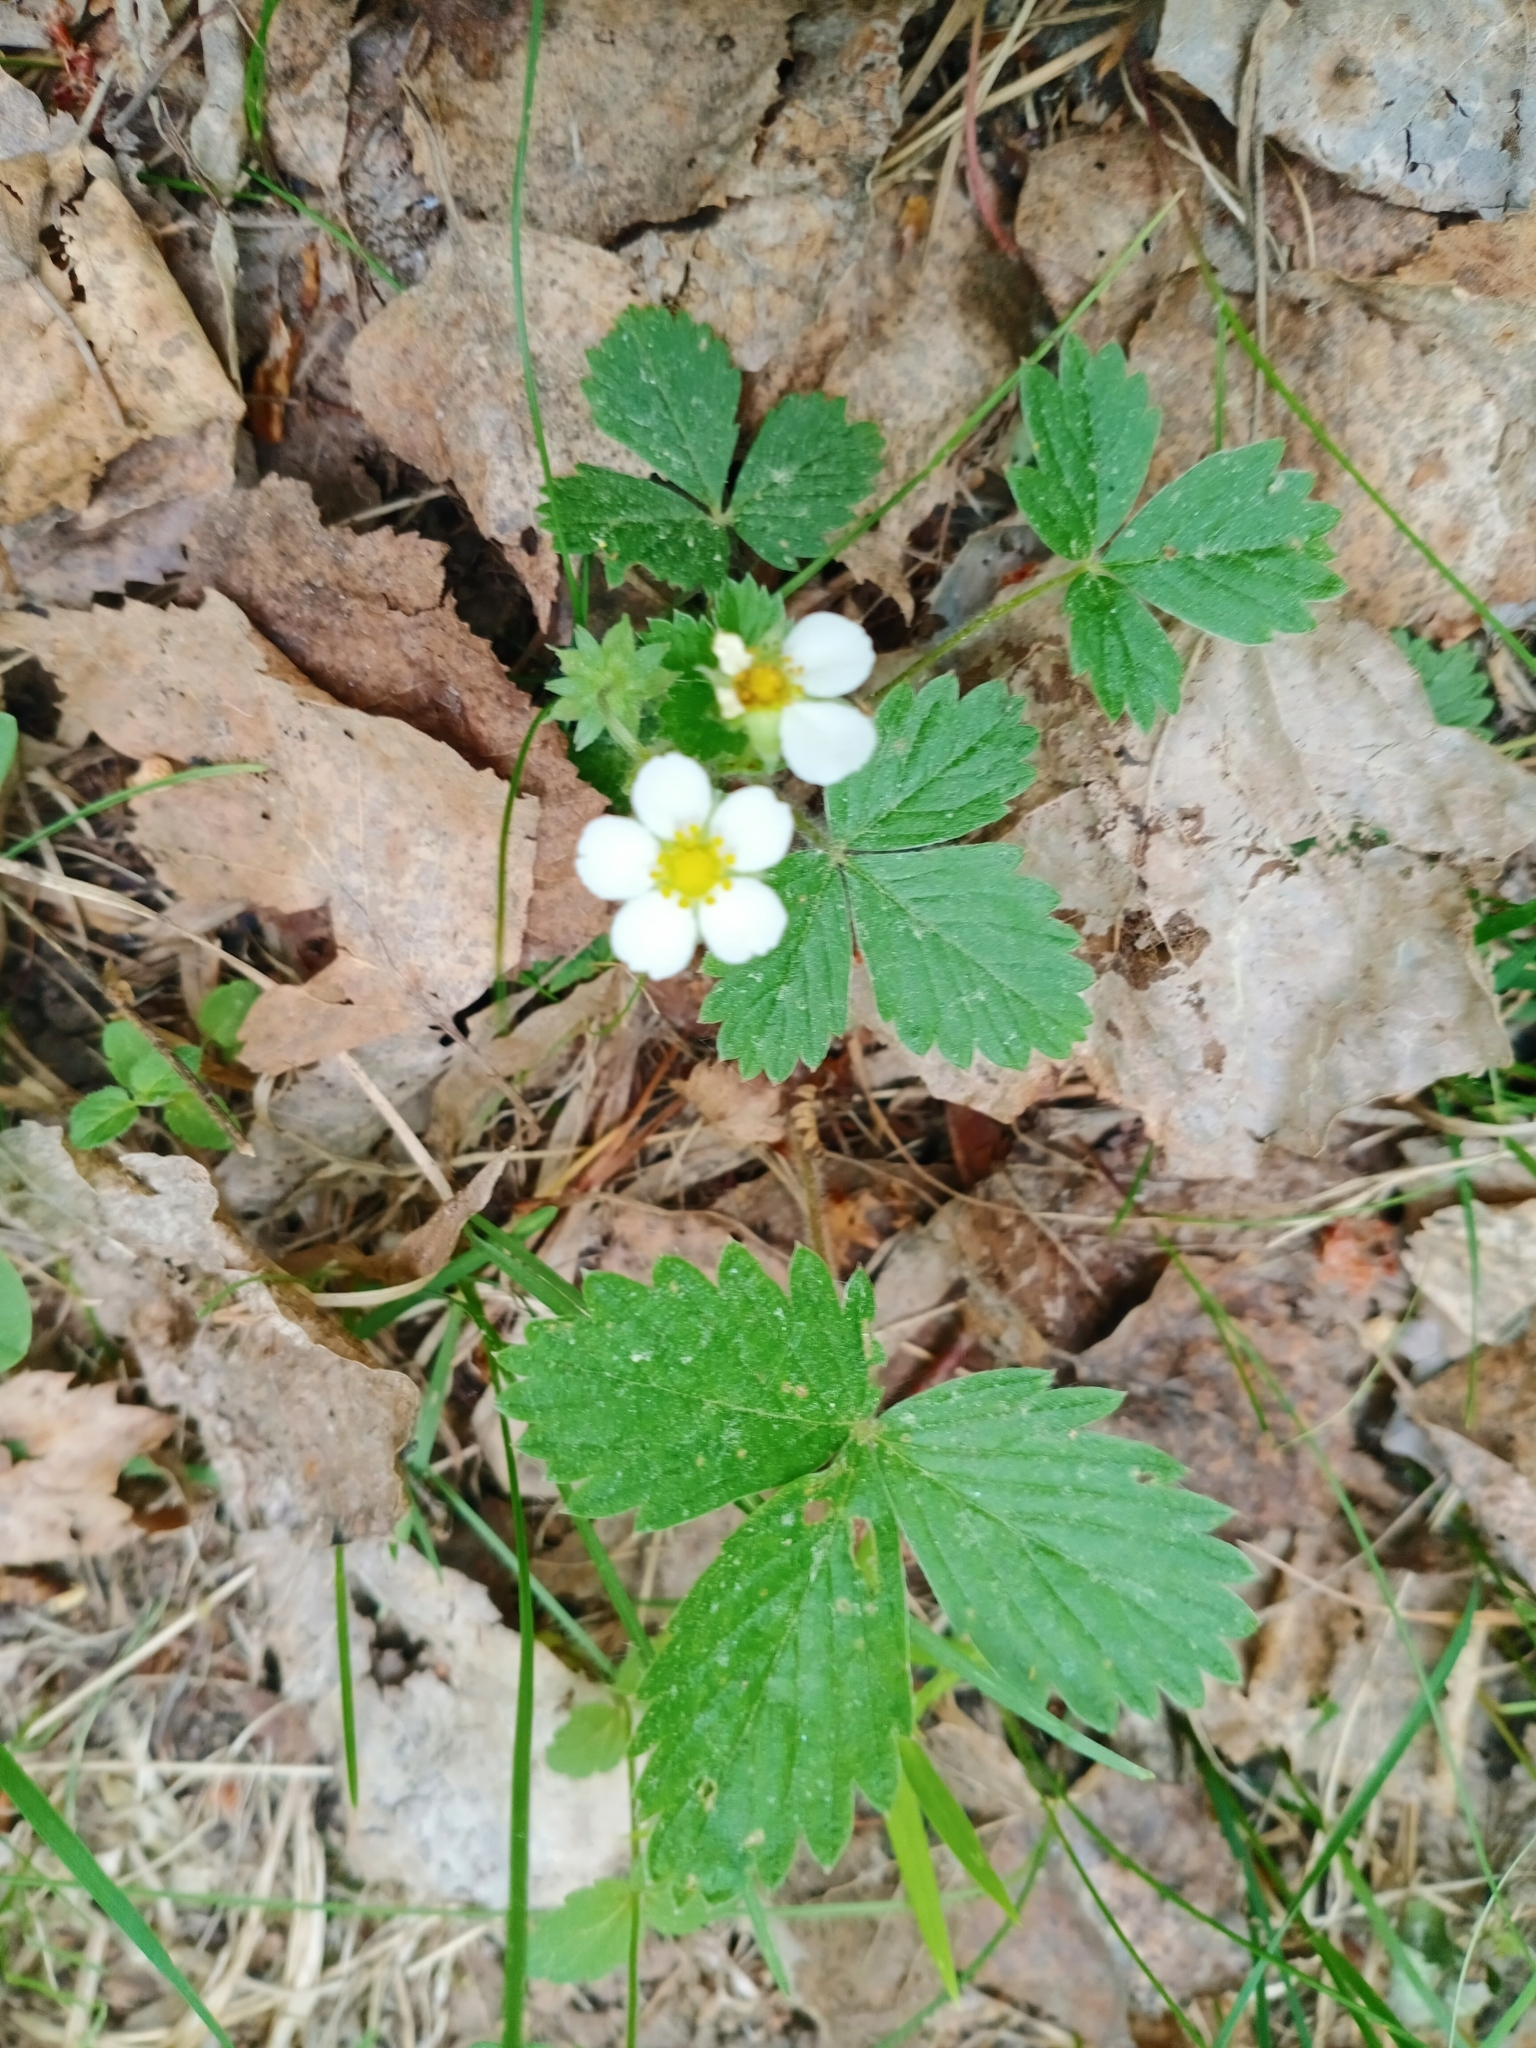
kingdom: Plantae
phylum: Tracheophyta
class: Magnoliopsida
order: Rosales
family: Rosaceae
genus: Fragaria
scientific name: Fragaria vesca
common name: Wild strawberry
